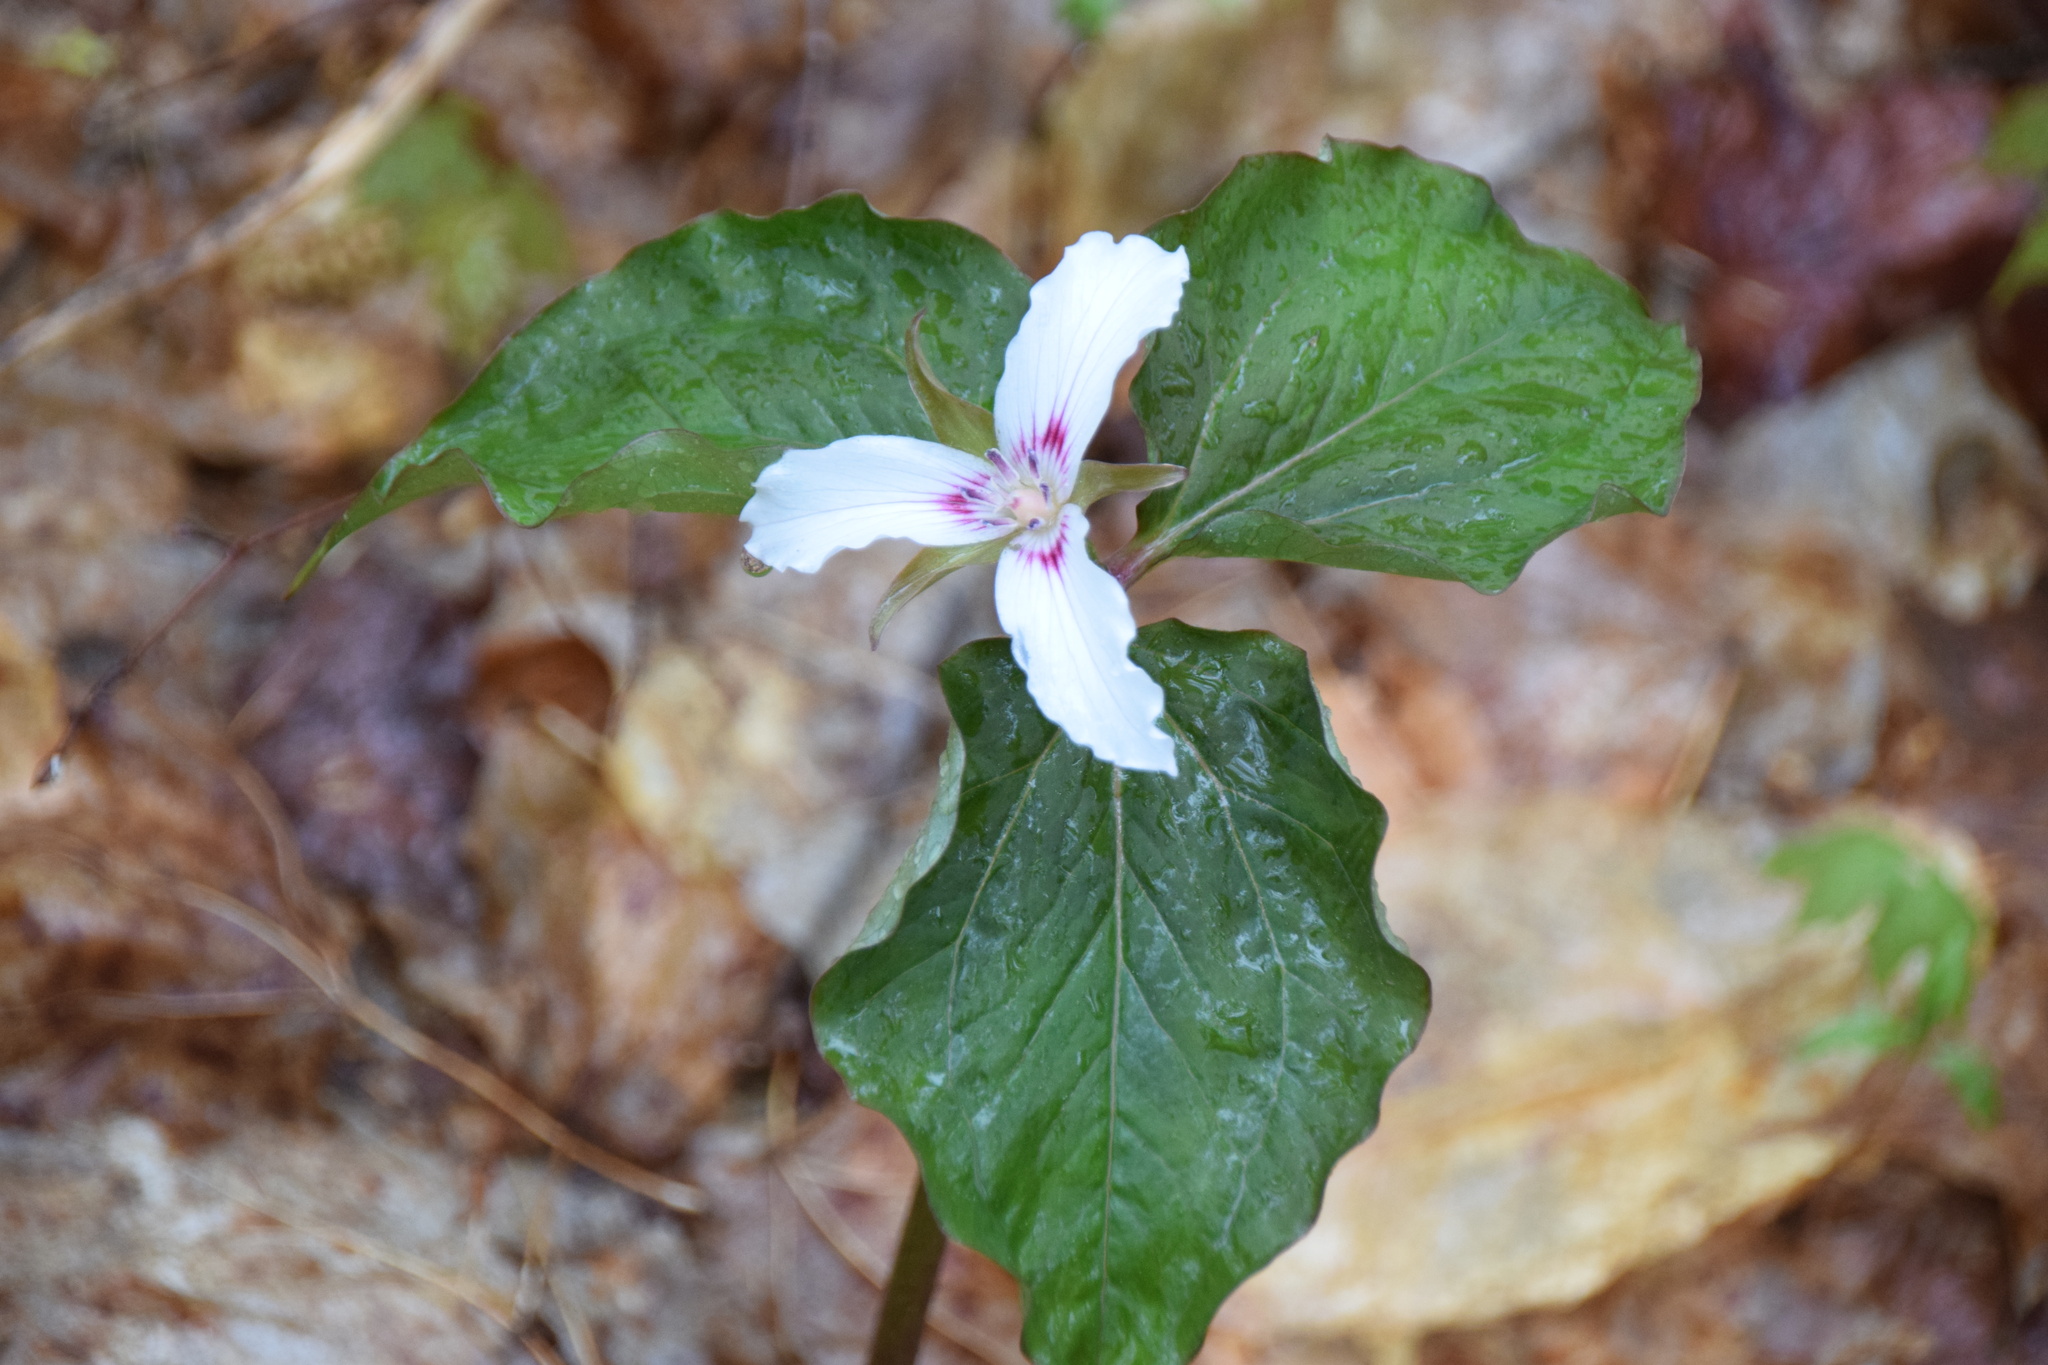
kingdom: Plantae
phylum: Tracheophyta
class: Liliopsida
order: Liliales
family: Melanthiaceae
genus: Trillium
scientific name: Trillium undulatum
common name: Paint trillium
